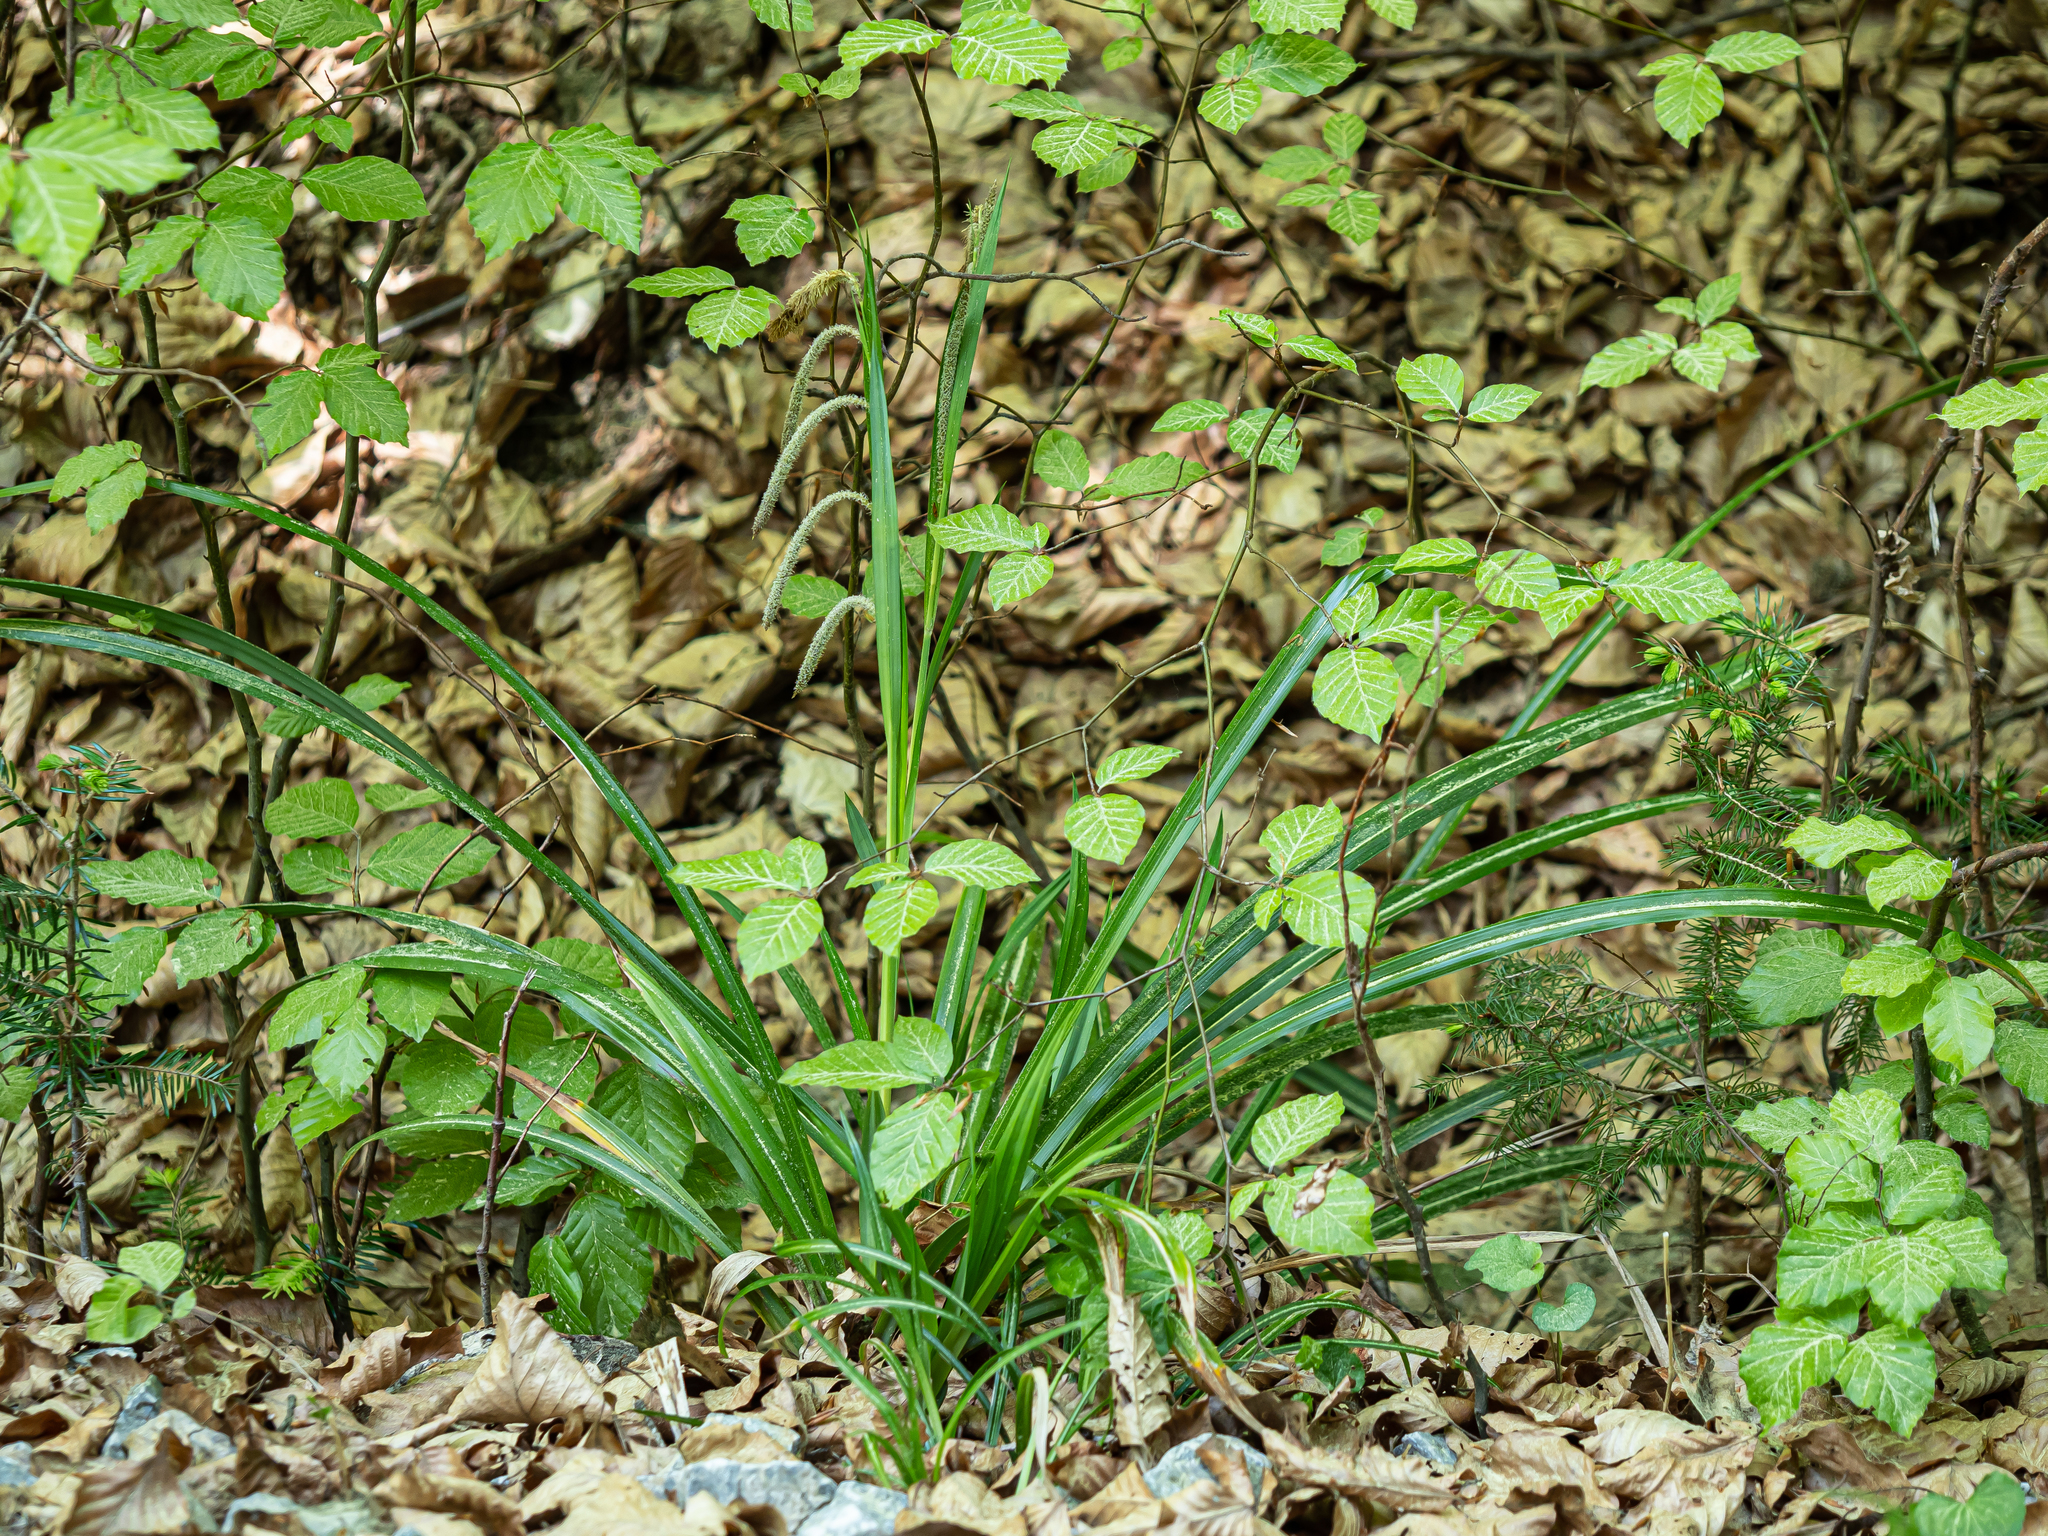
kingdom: Plantae
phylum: Tracheophyta
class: Liliopsida
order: Poales
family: Cyperaceae
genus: Carex
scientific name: Carex pendula
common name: Pendulous sedge
